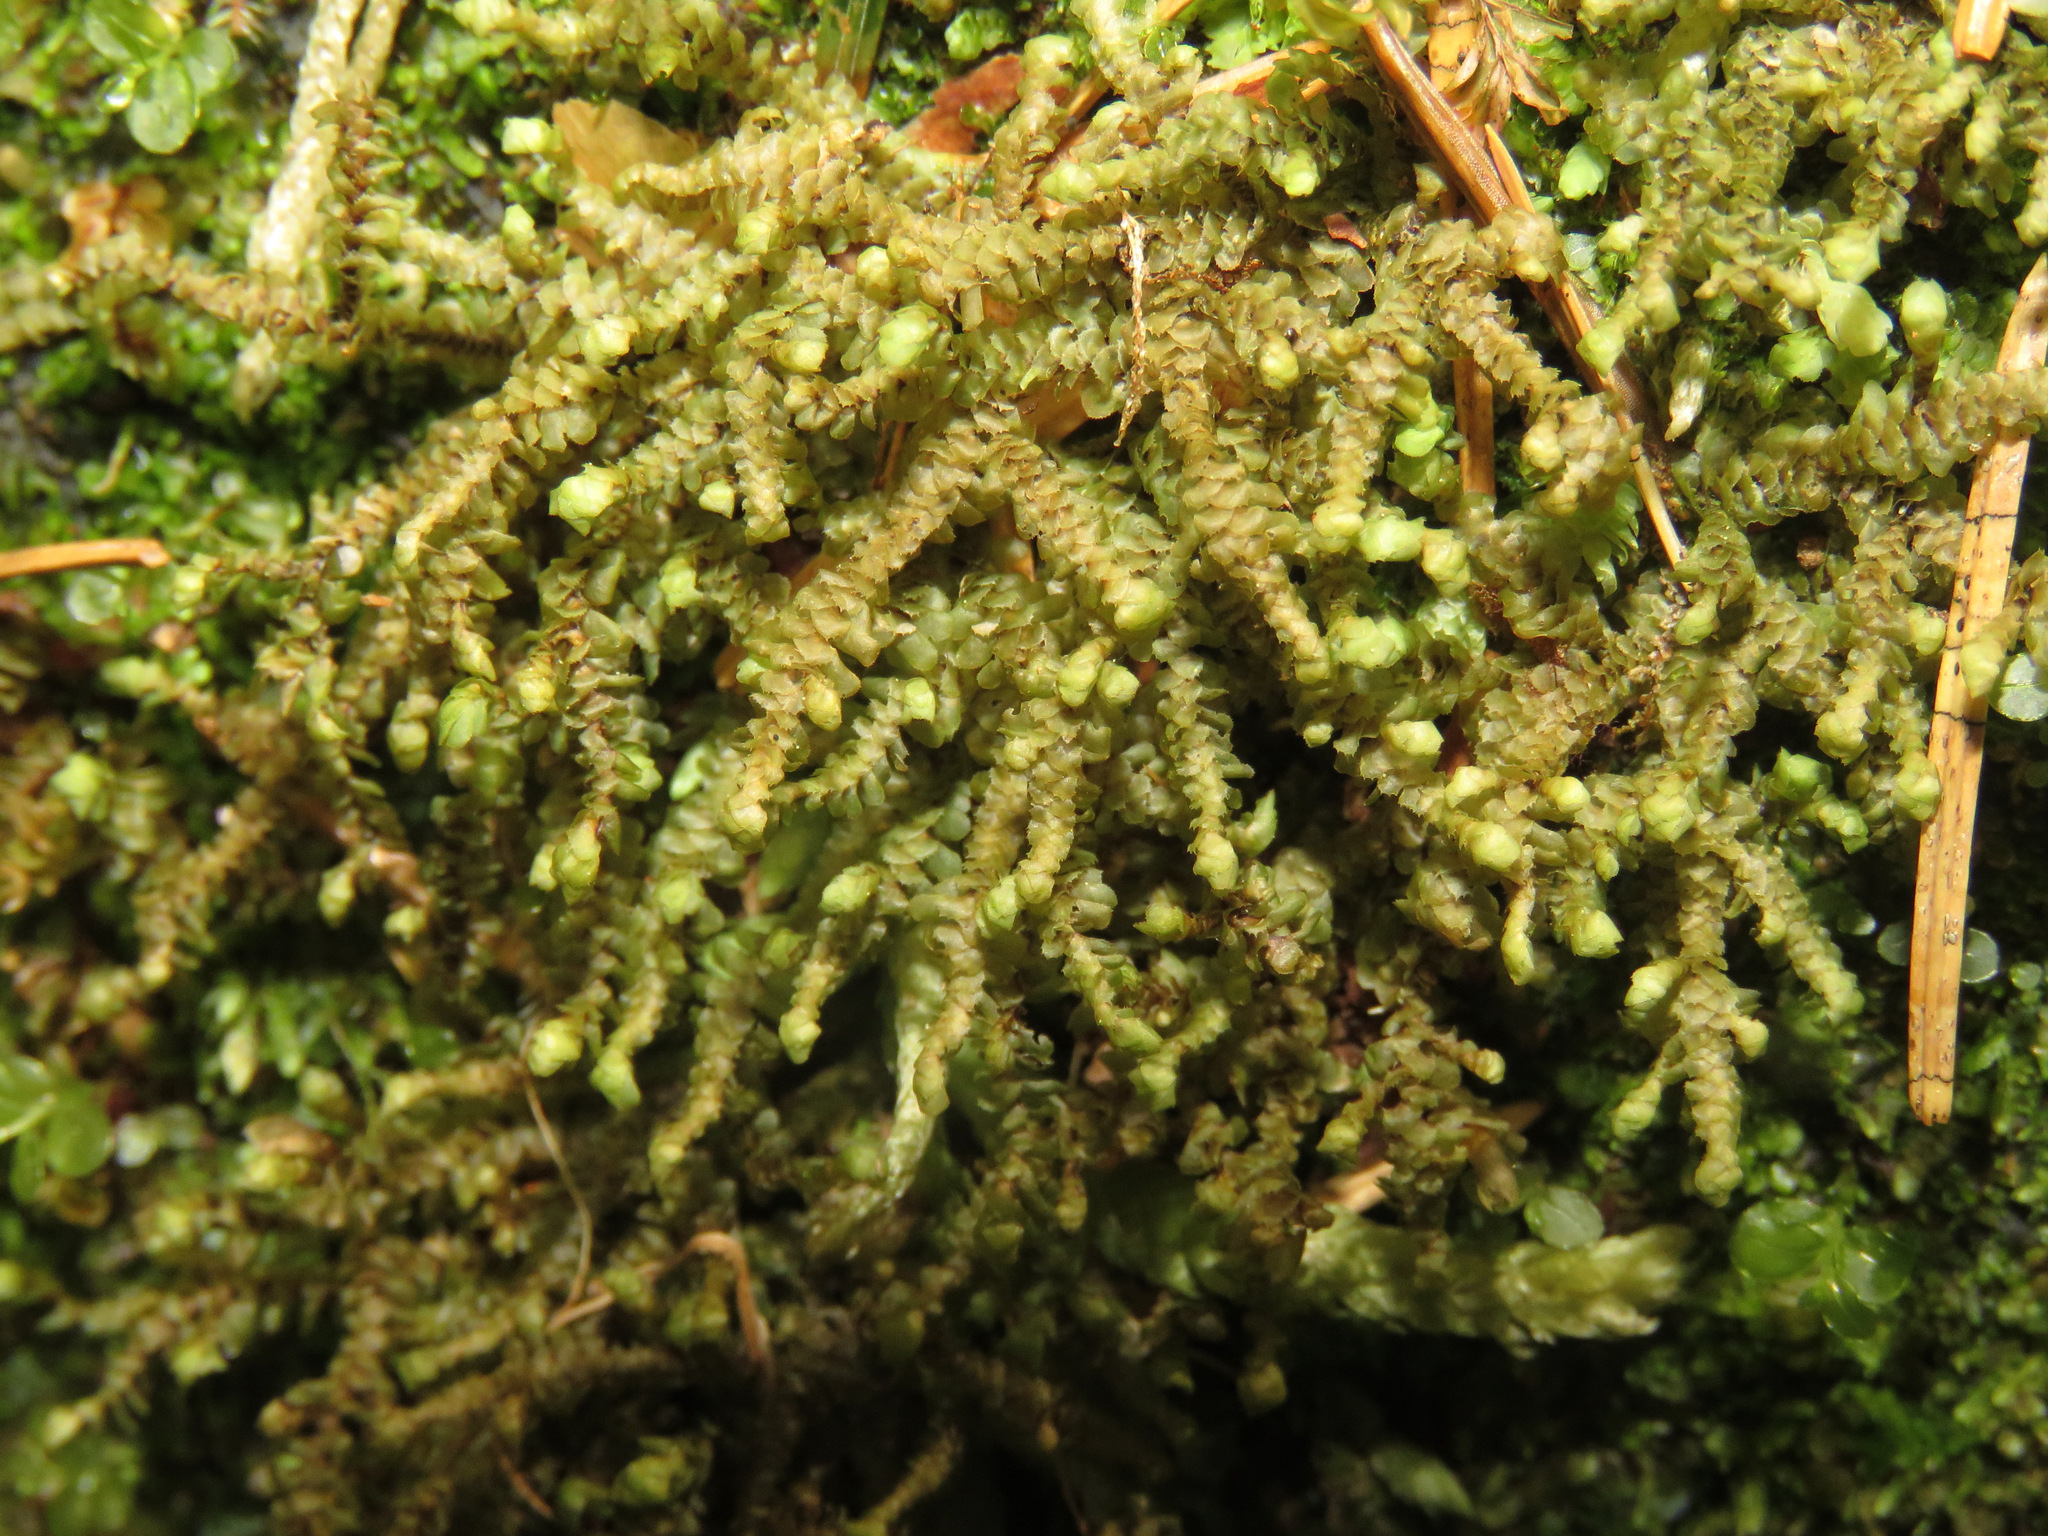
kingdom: Plantae
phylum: Marchantiophyta
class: Jungermanniopsida
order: Jungermanniales
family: Scapaniaceae
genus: Scapania
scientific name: Scapania bolanderi
